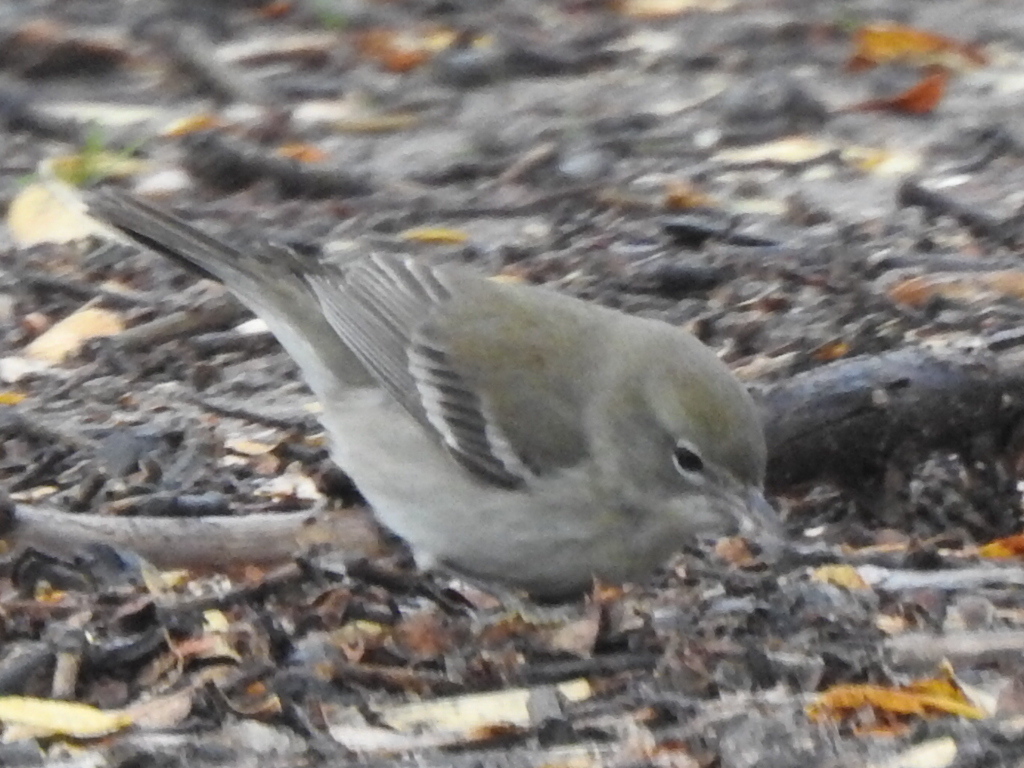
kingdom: Animalia
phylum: Chordata
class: Aves
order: Passeriformes
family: Parulidae
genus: Setophaga
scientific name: Setophaga pinus
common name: Pine warbler
